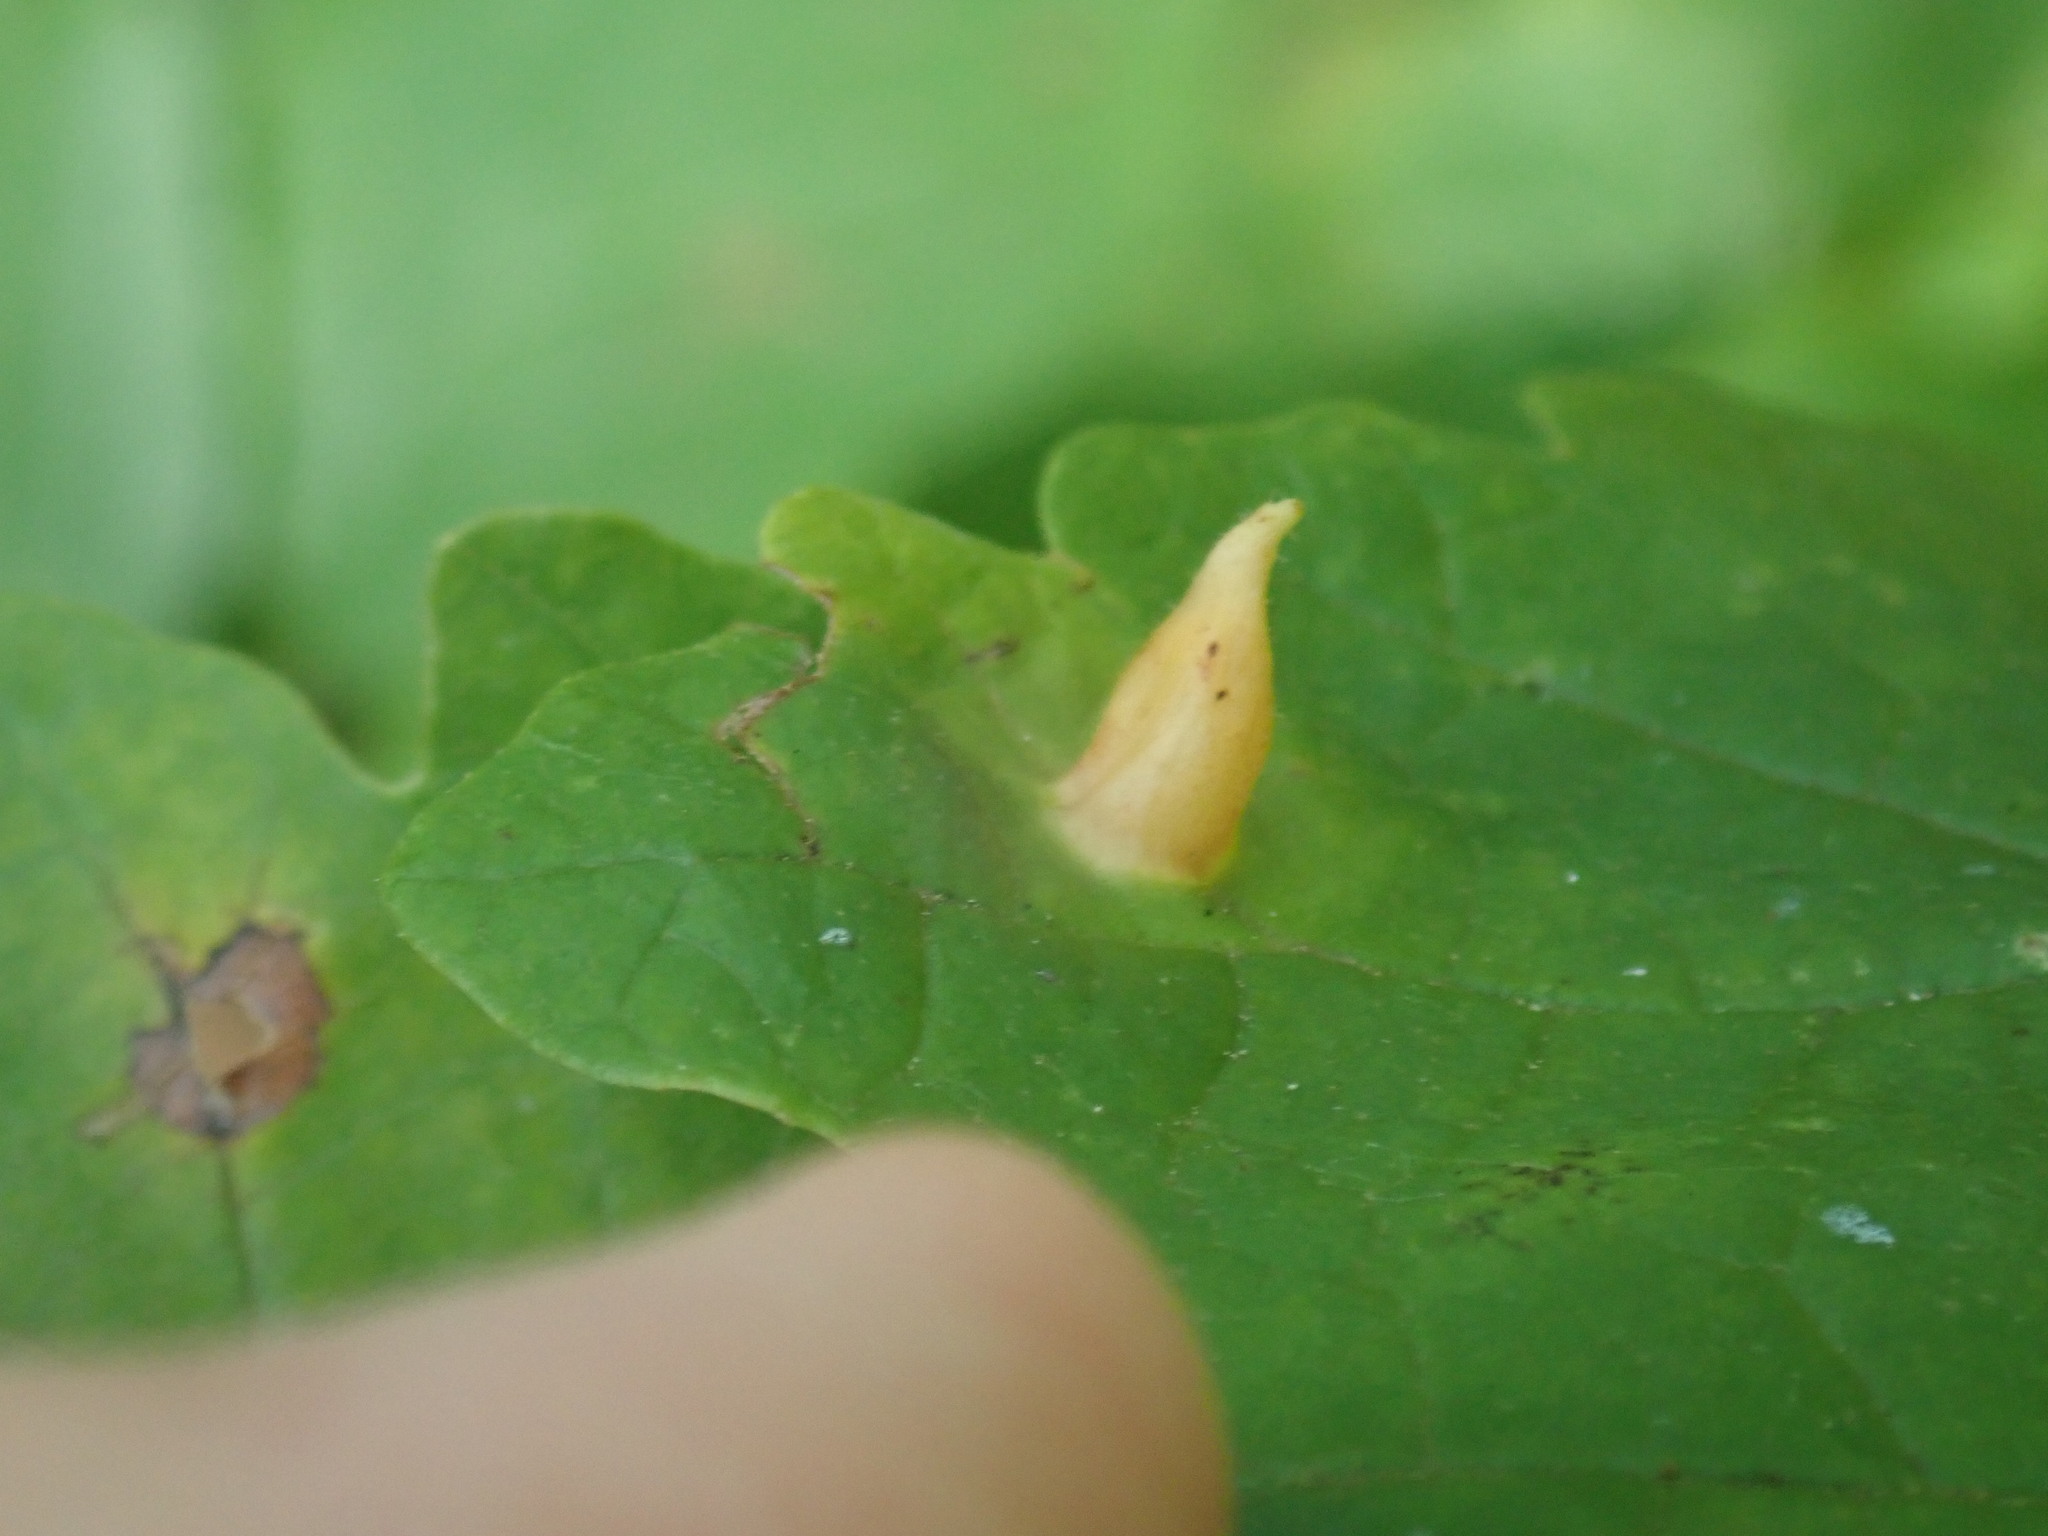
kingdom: Animalia
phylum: Arthropoda
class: Insecta
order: Hemiptera
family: Aphididae
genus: Hormaphis
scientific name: Hormaphis hamamelidis
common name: Witch-hazel cone gall aphid
